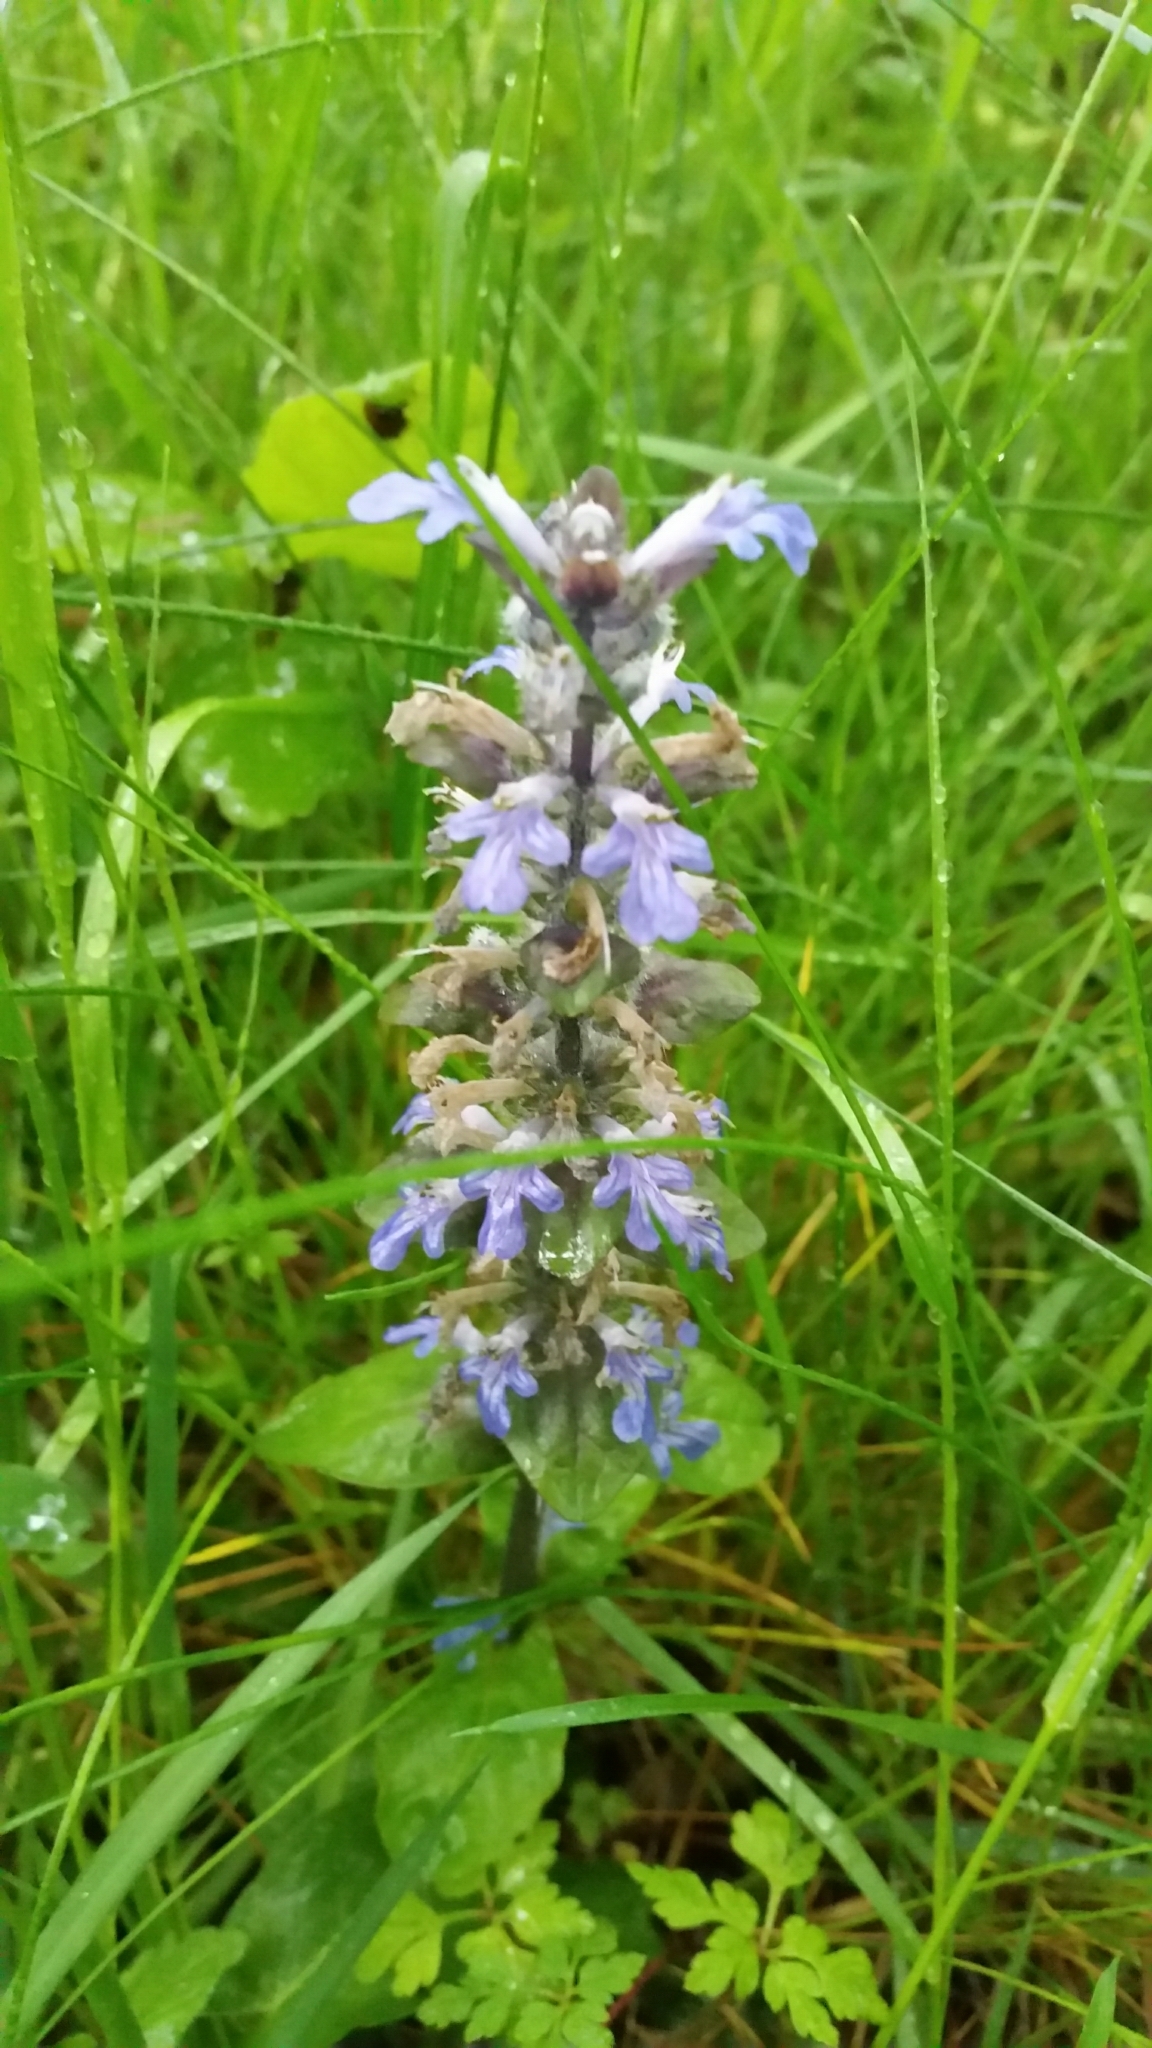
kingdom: Plantae
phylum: Tracheophyta
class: Magnoliopsida
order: Lamiales
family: Lamiaceae
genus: Ajuga
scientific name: Ajuga reptans
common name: Bugle
